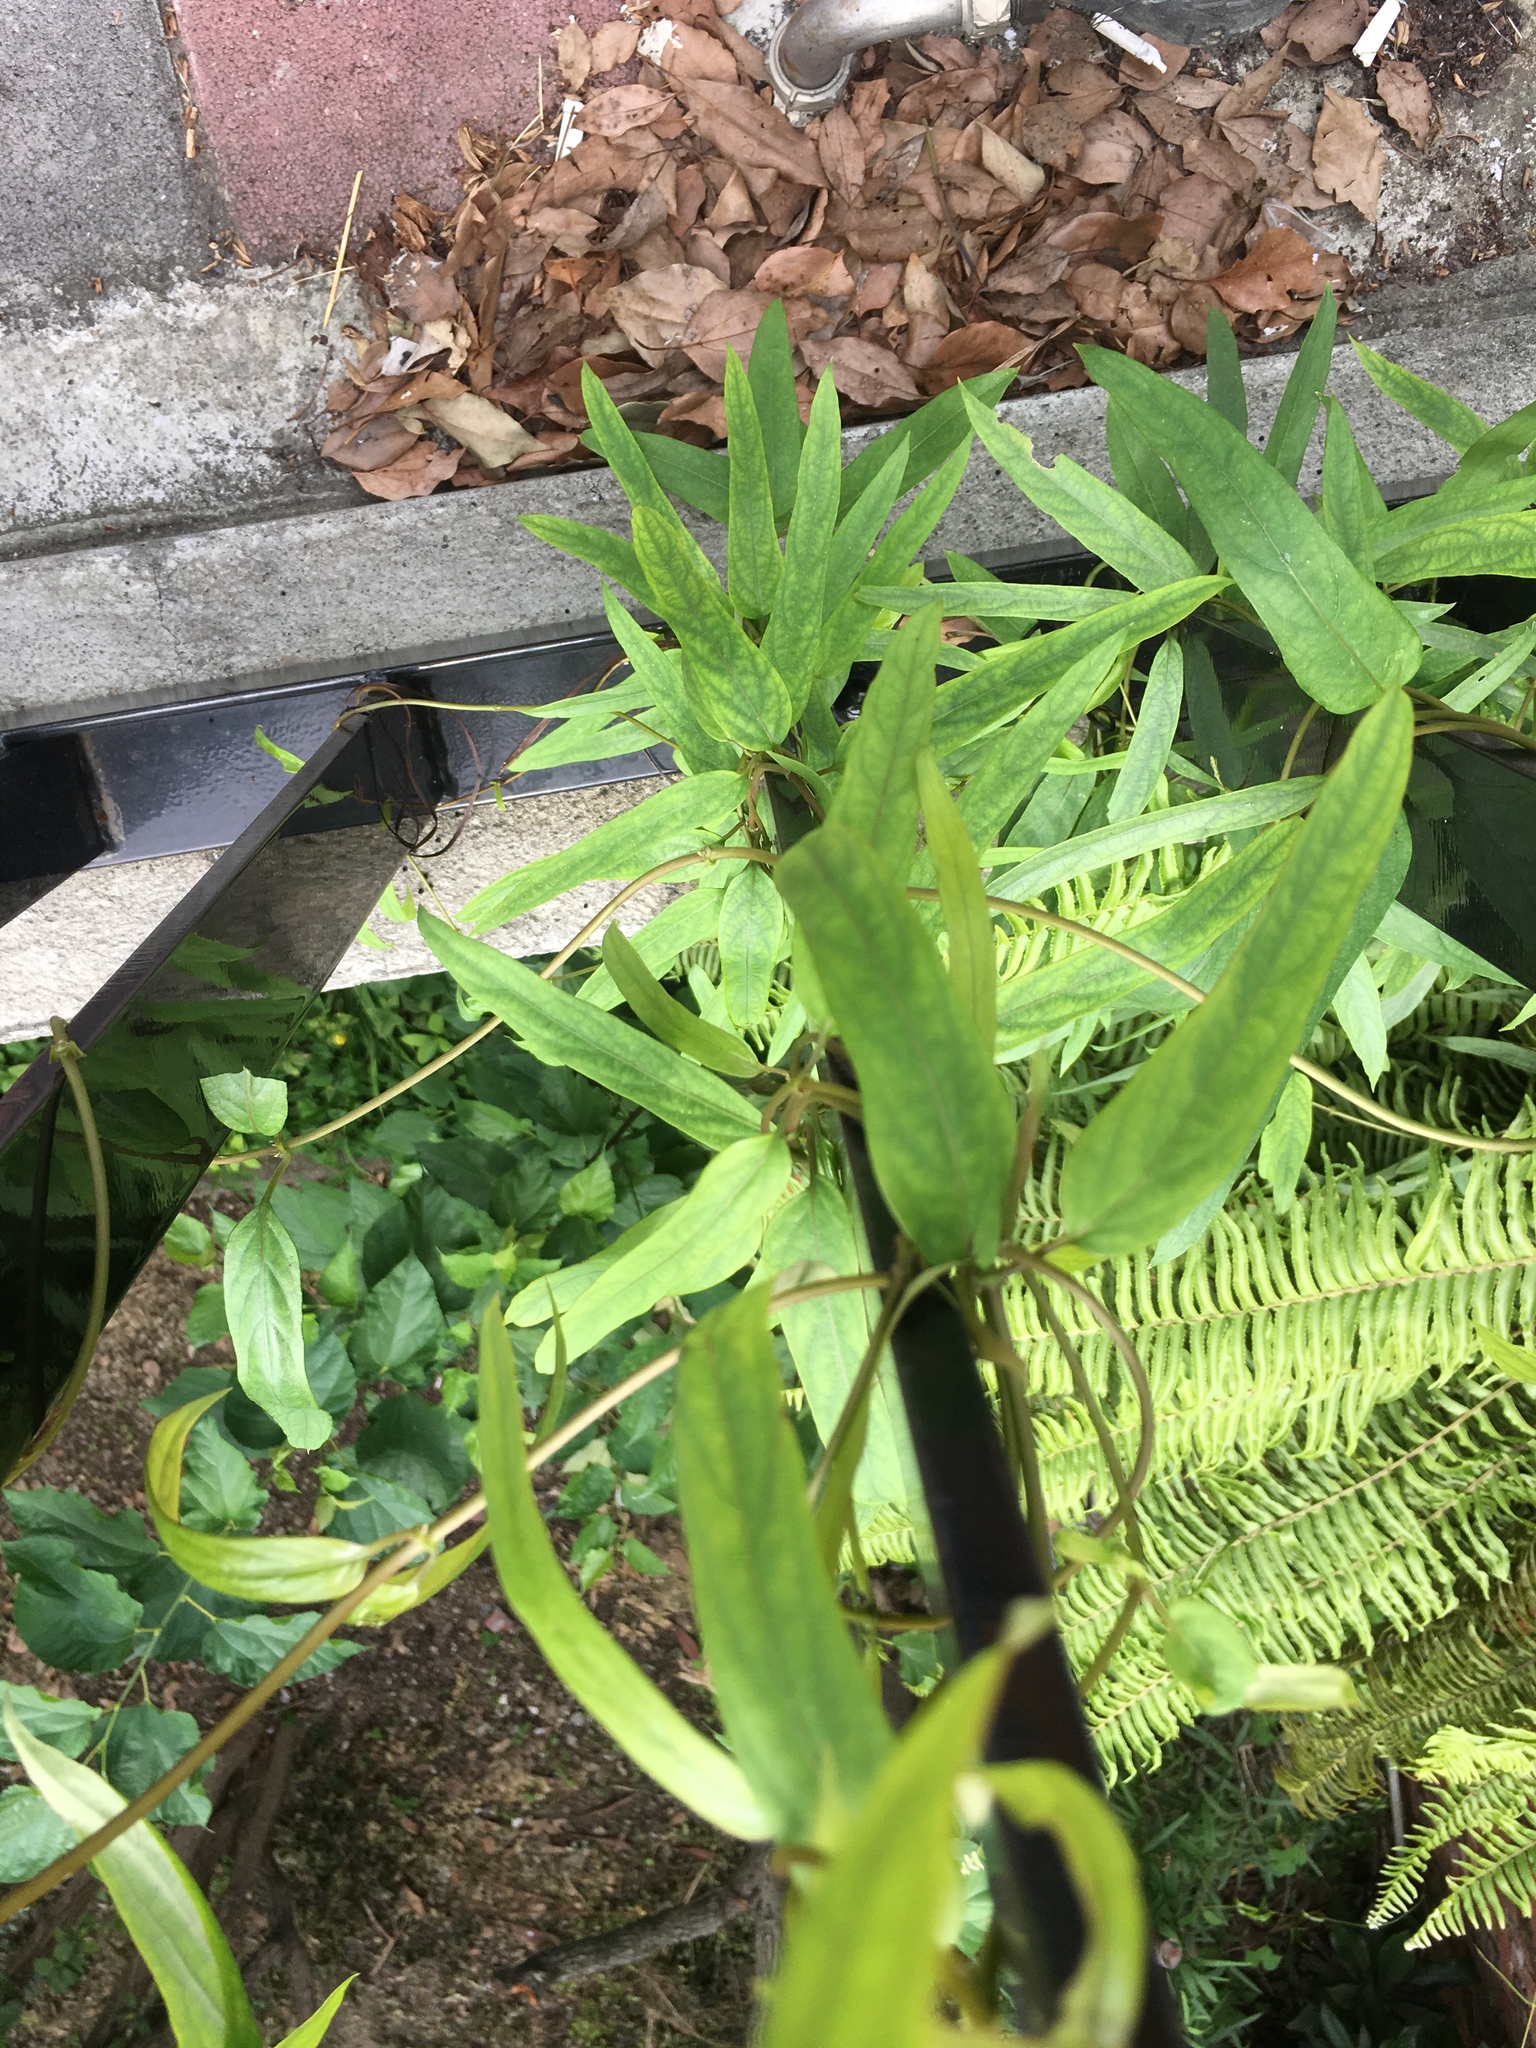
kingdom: Plantae
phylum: Tracheophyta
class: Magnoliopsida
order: Gentianales
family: Rubiaceae
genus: Paederia
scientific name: Paederia foetida
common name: Stinkvine
